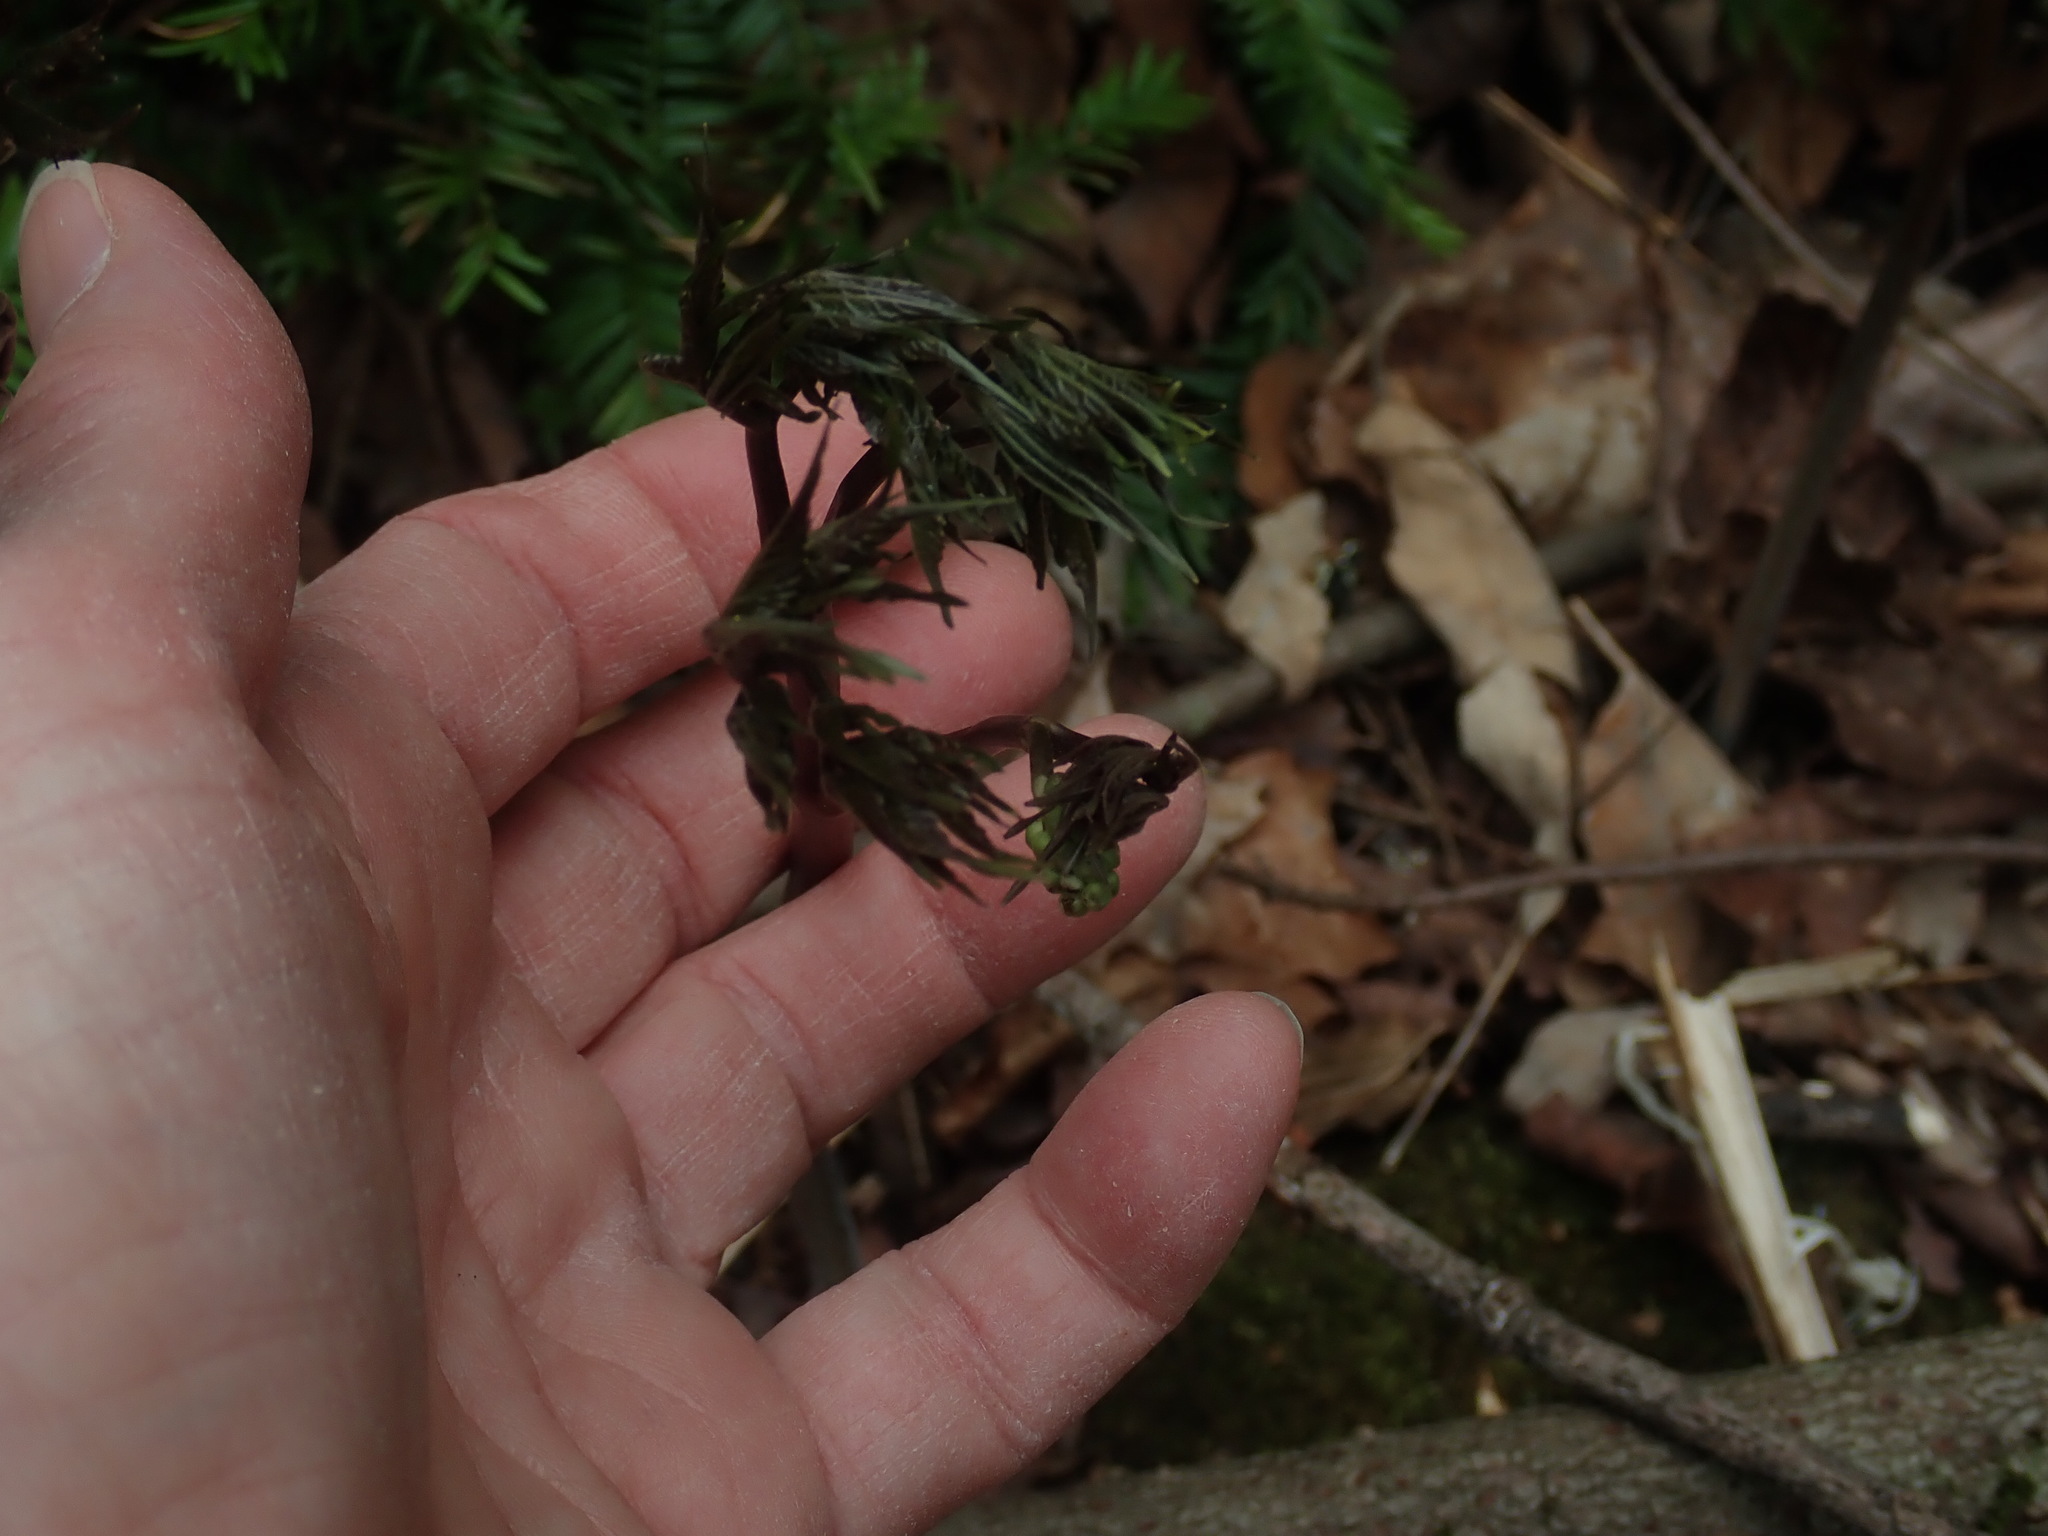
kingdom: Plantae
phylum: Tracheophyta
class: Magnoliopsida
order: Ranunculales
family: Ranunculaceae
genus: Actaea
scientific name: Actaea
